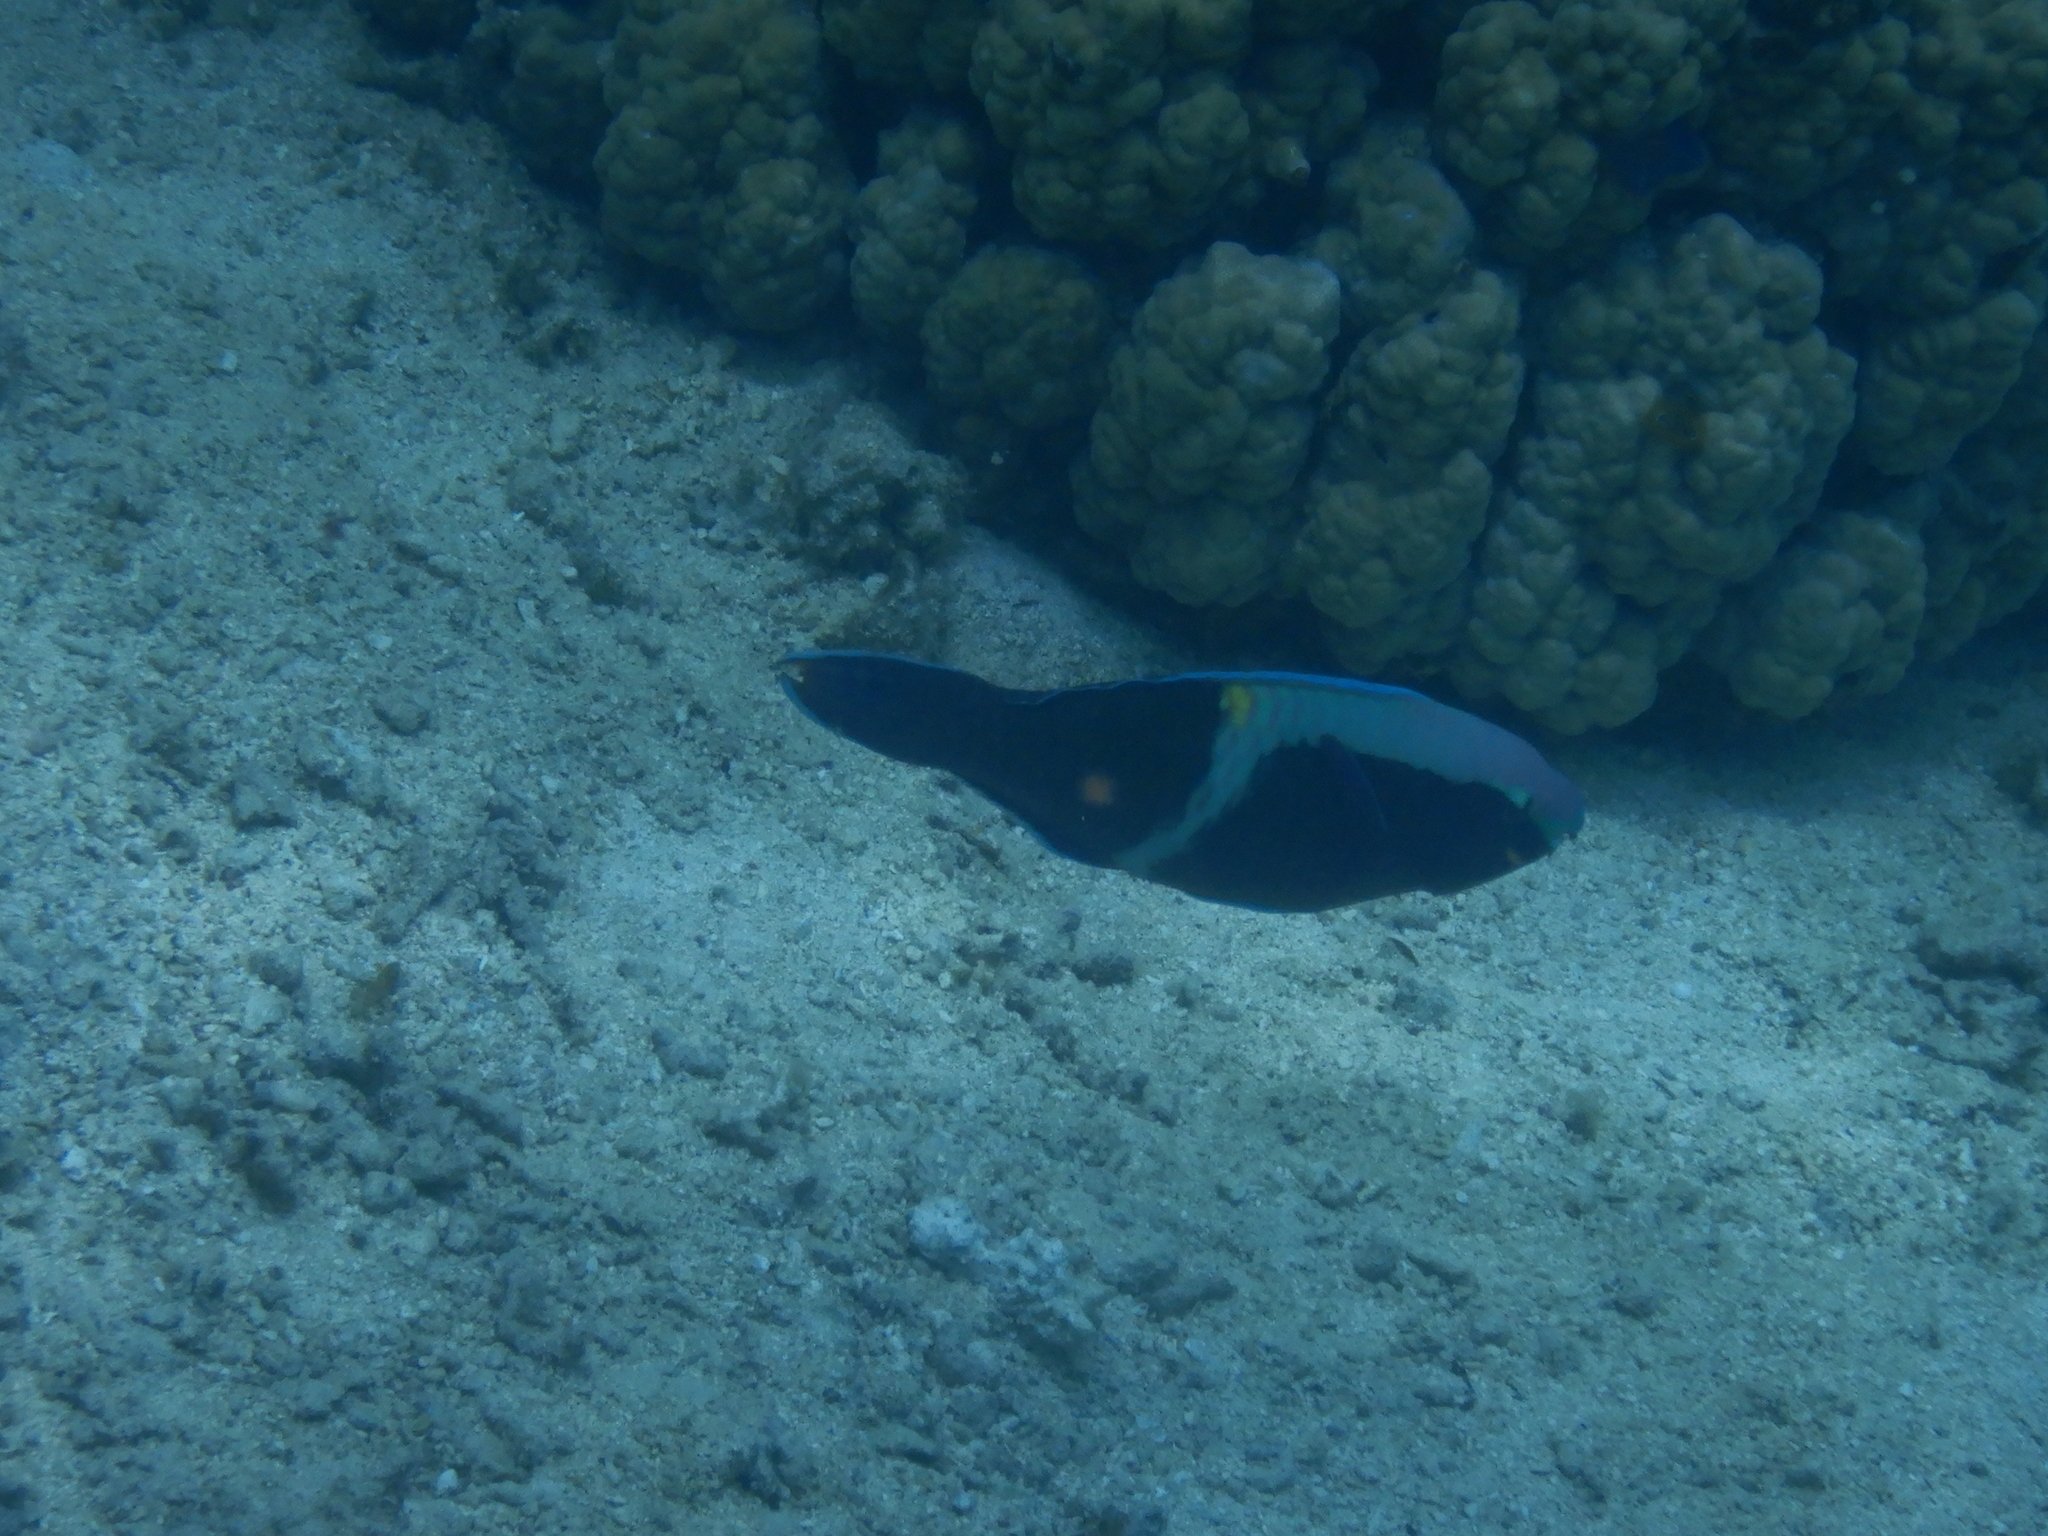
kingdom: Animalia
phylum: Chordata
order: Perciformes
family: Scaridae
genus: Scarus
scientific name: Scarus schlegeli
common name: Schlegel's parrotfish
